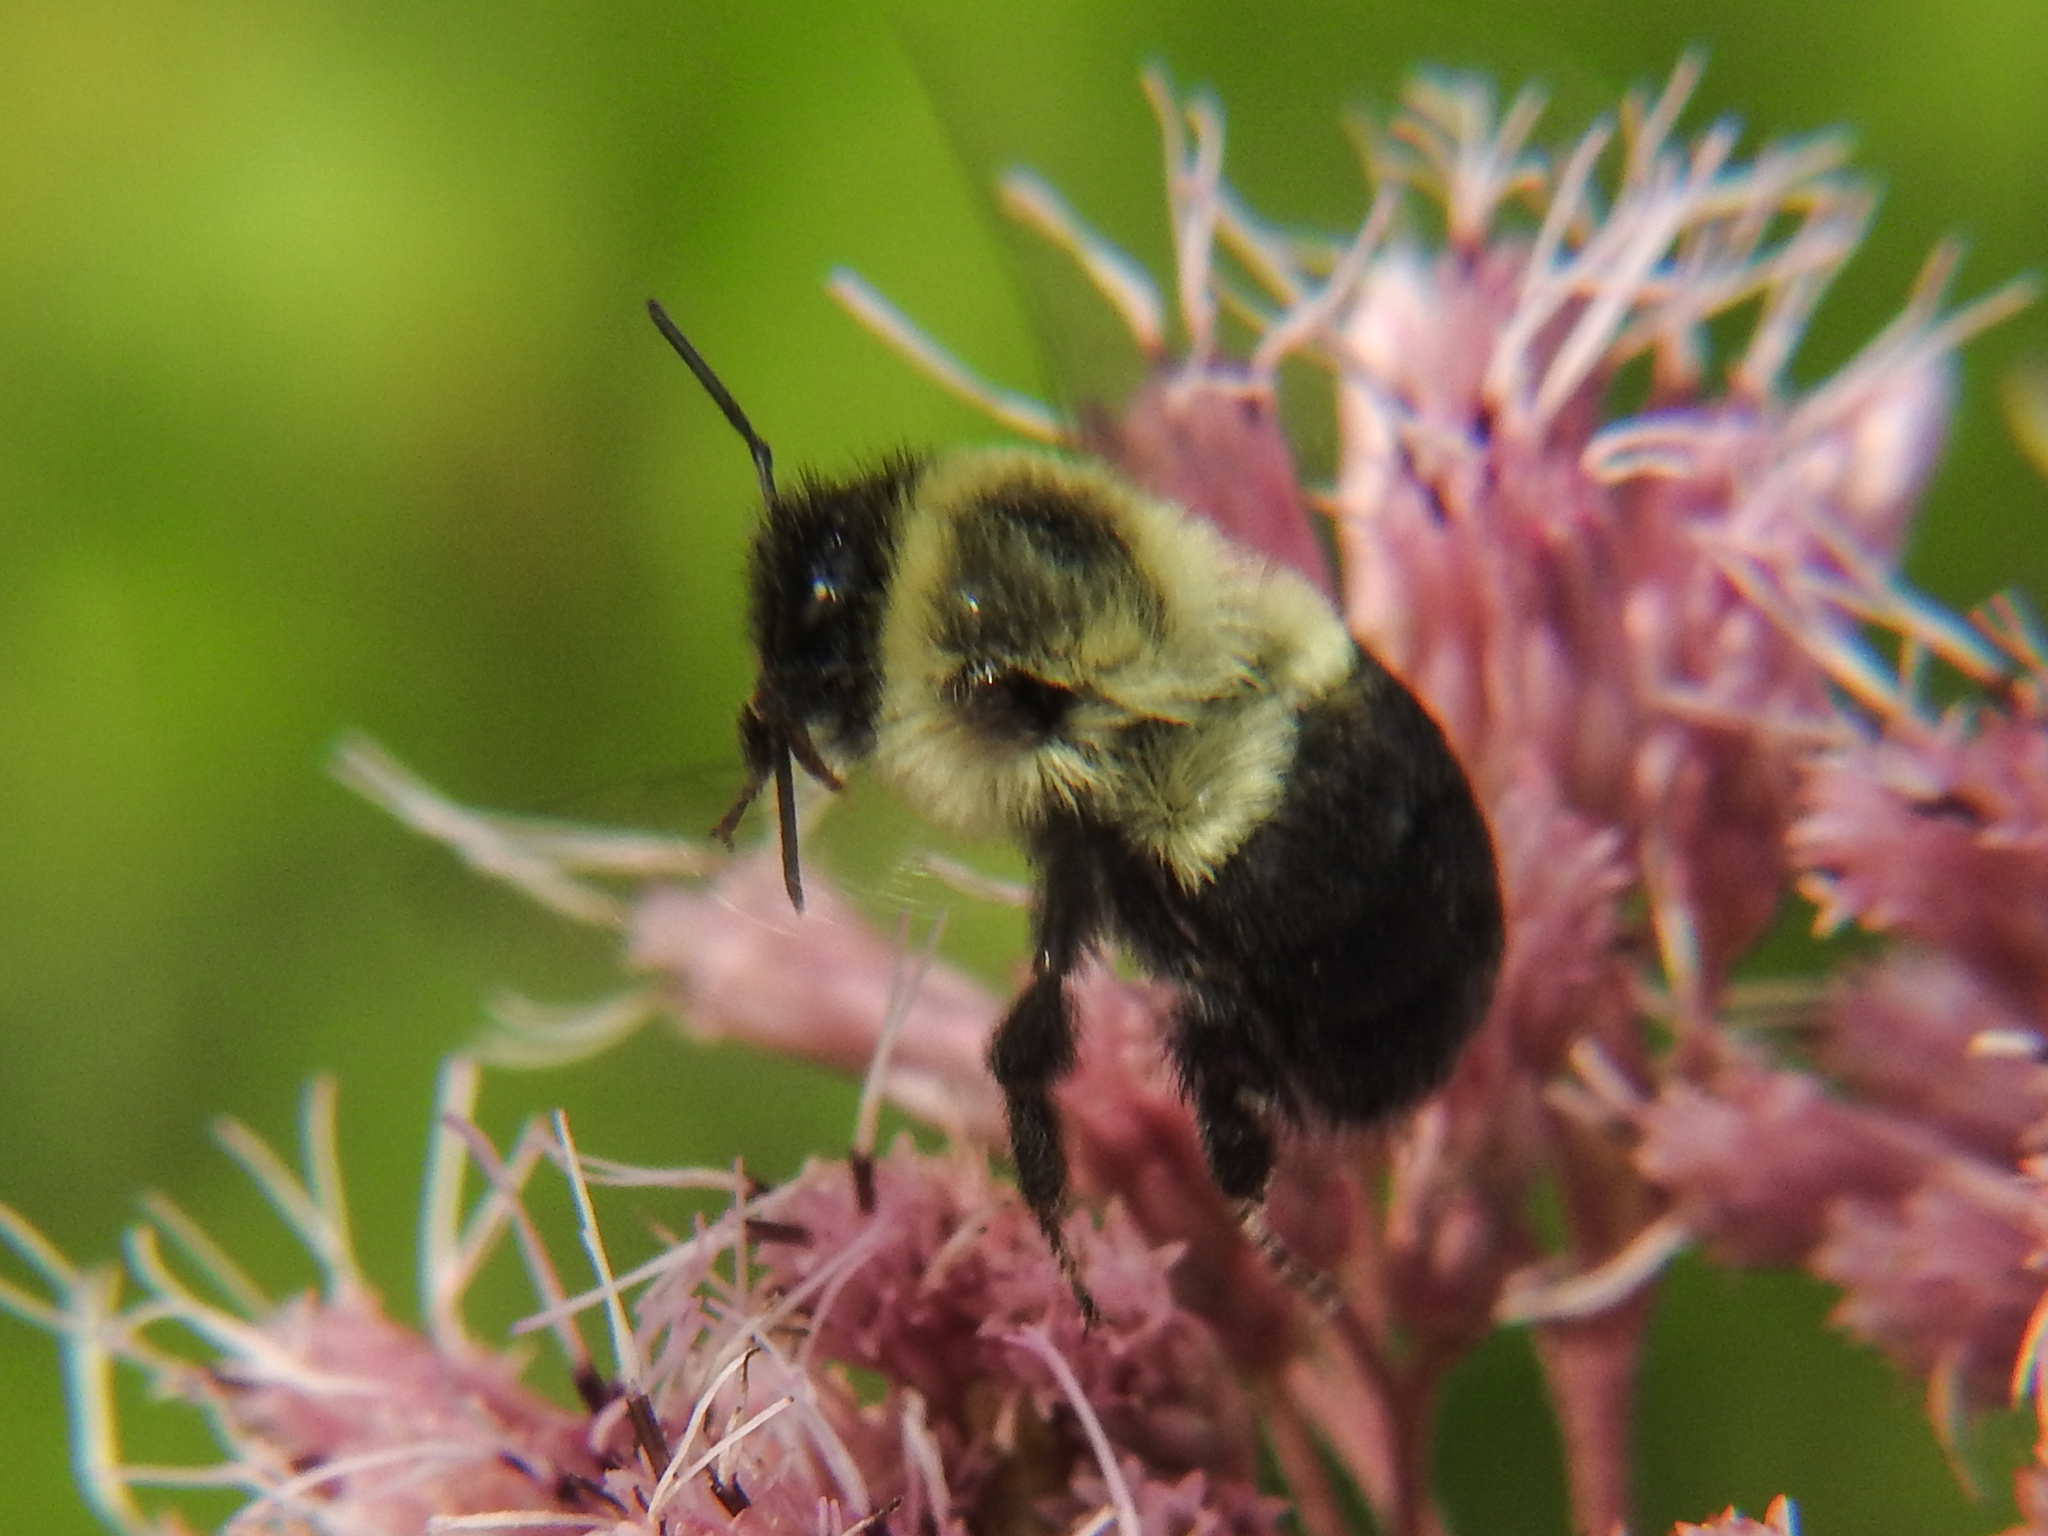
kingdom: Animalia
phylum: Arthropoda
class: Insecta
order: Hymenoptera
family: Apidae
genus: Bombus
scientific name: Bombus impatiens
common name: Common eastern bumble bee
